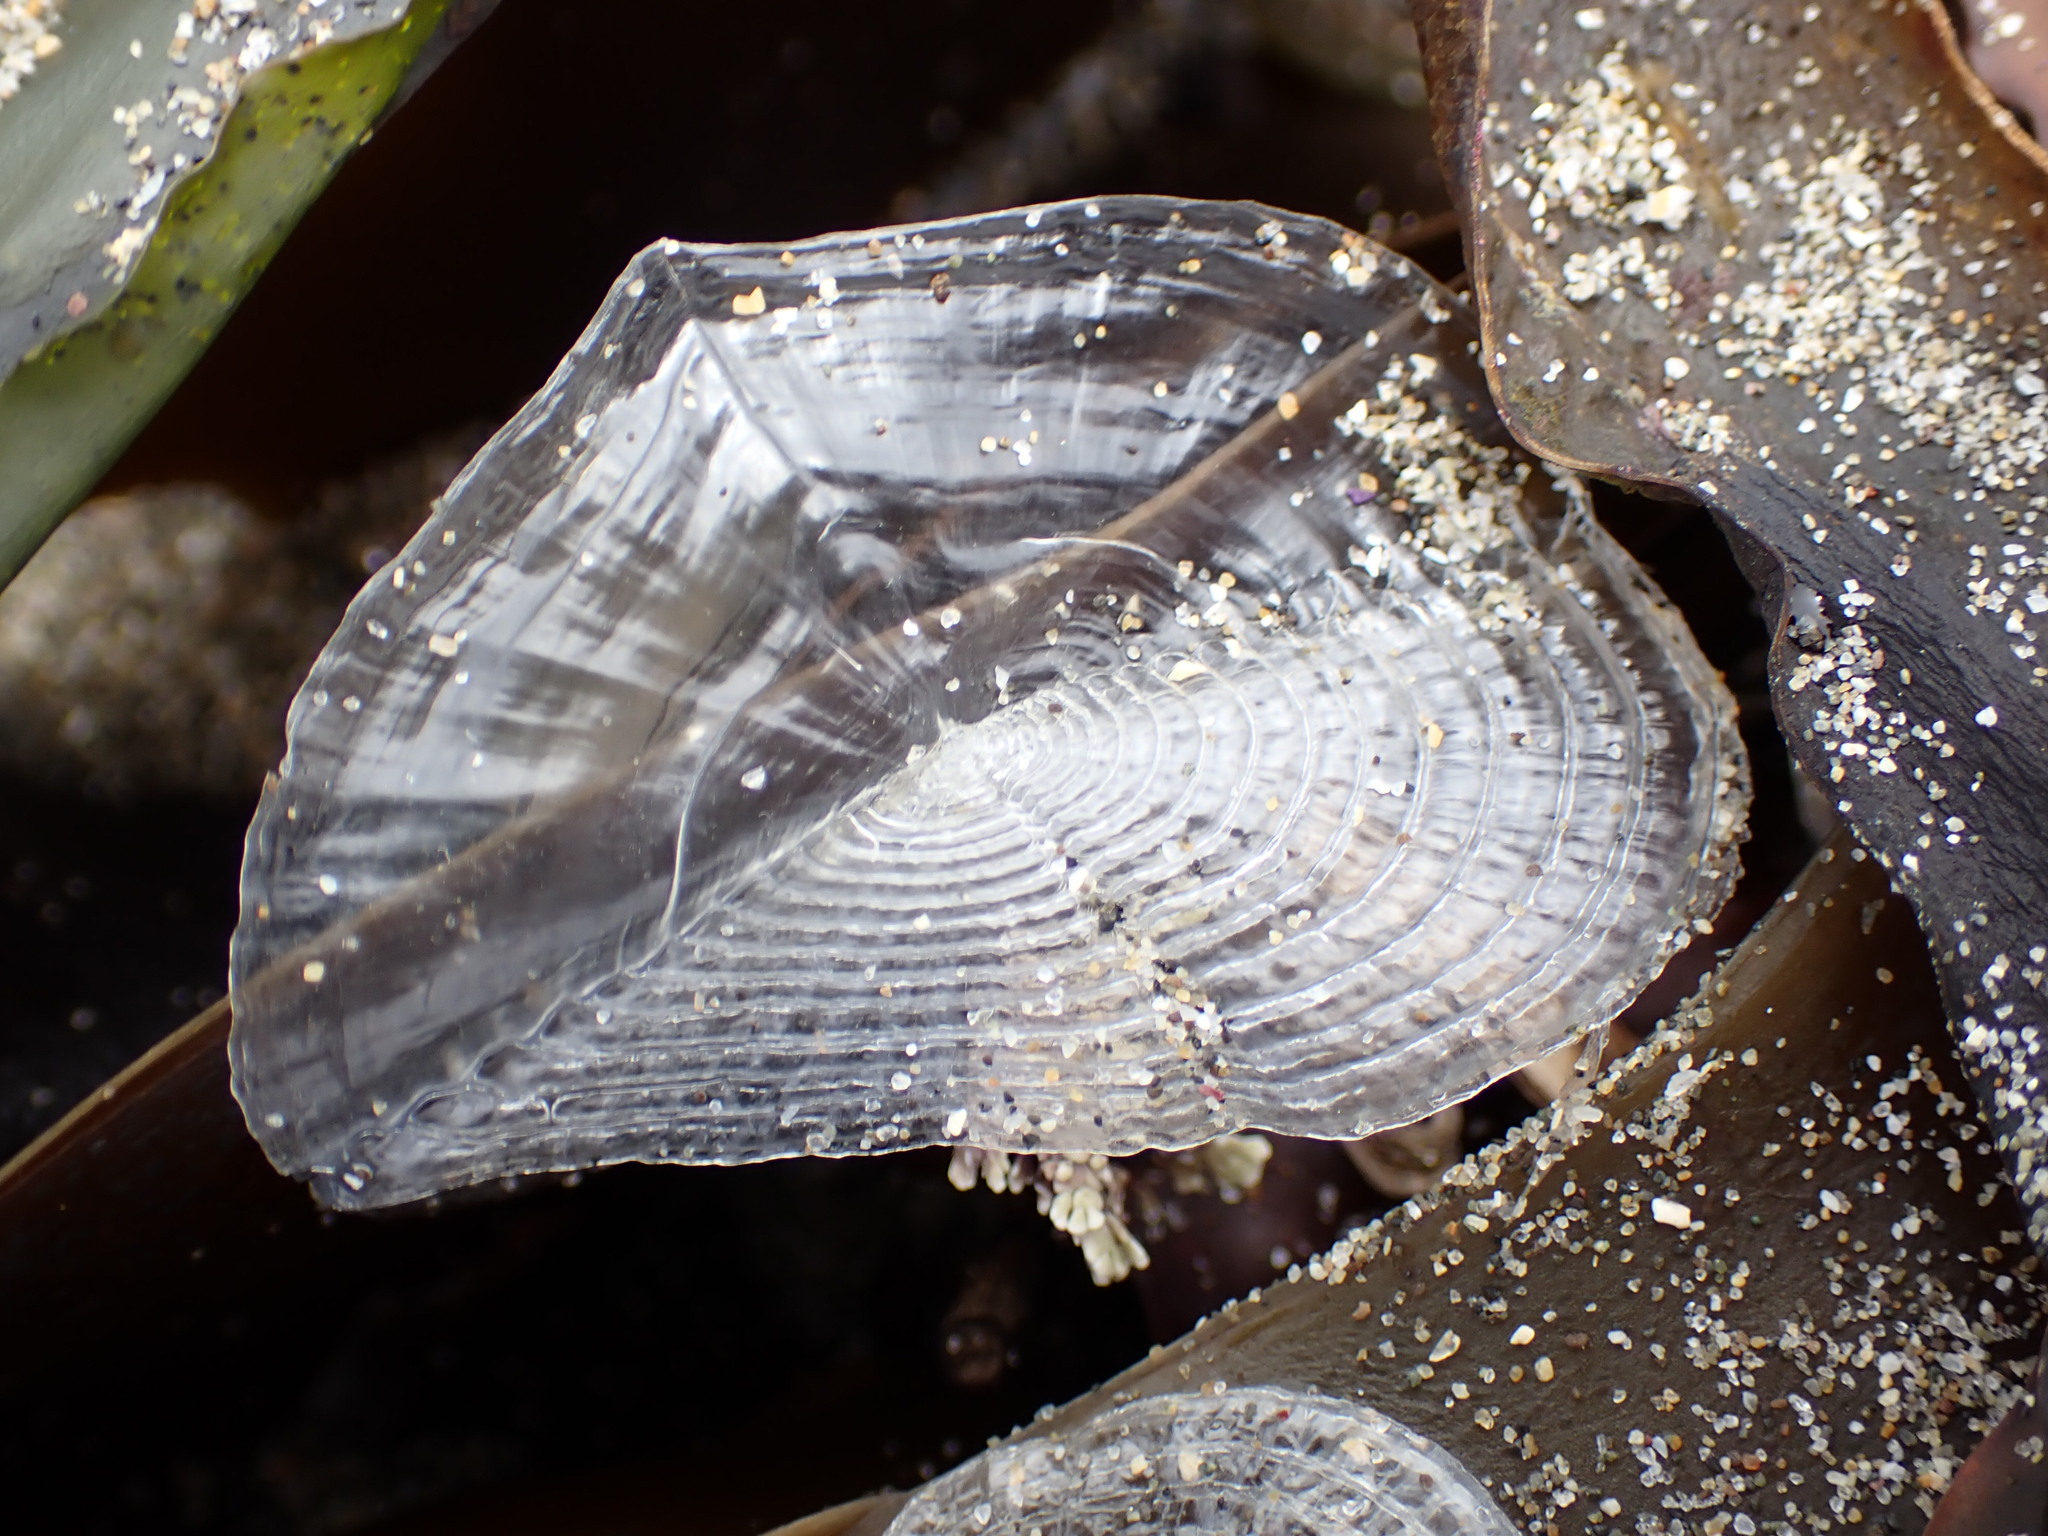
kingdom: Animalia
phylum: Cnidaria
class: Hydrozoa
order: Anthoathecata
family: Porpitidae
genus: Velella
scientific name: Velella velella
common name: By-the-wind-sailor
